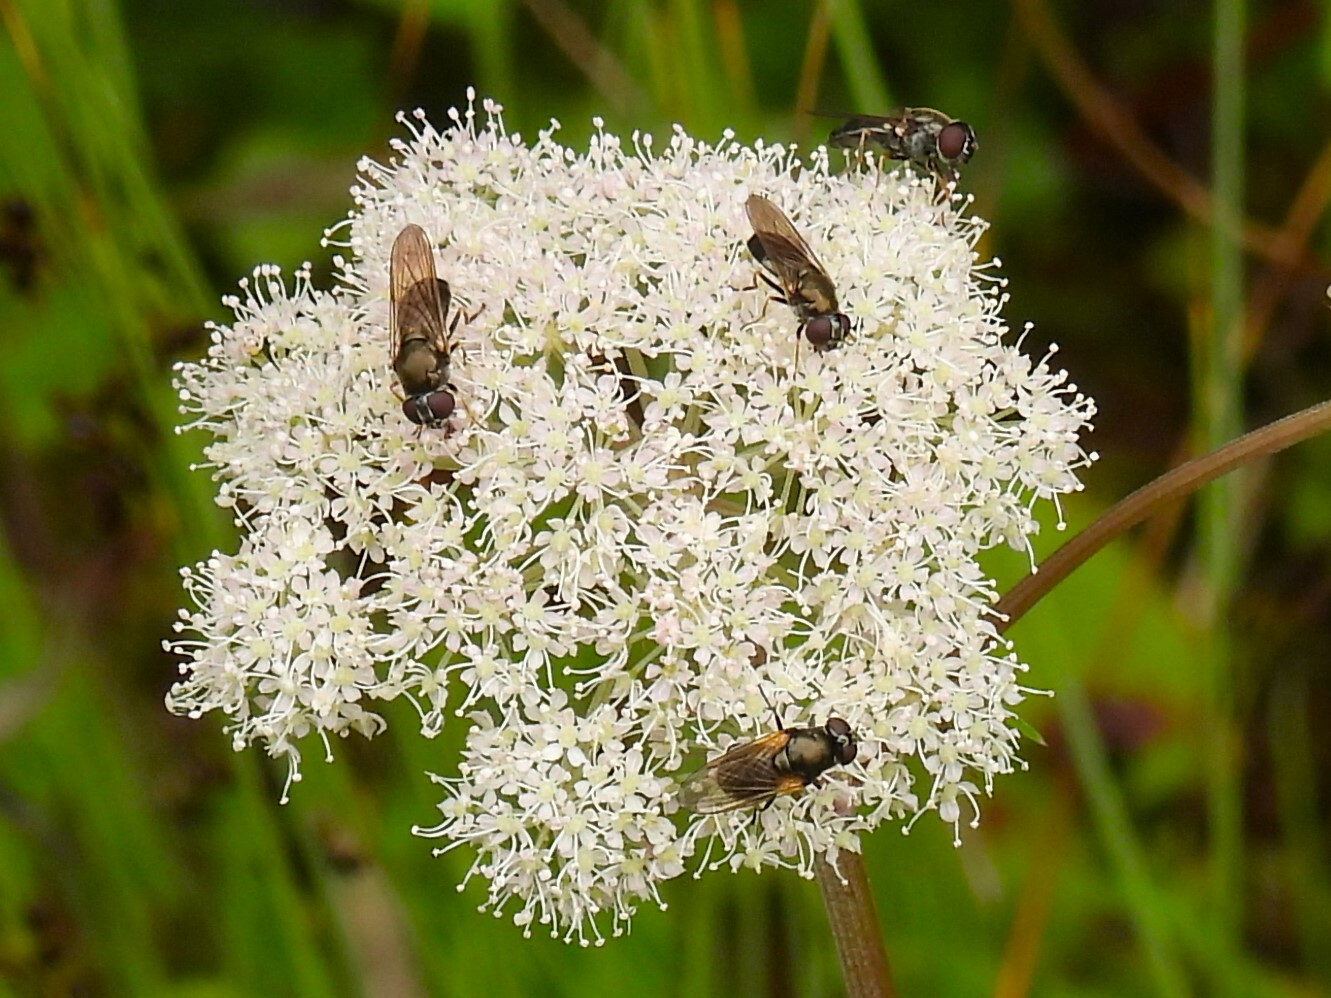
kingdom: Animalia
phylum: Arthropoda
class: Insecta
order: Diptera
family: Syrphidae
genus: Cheilosia
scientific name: Cheilosia
